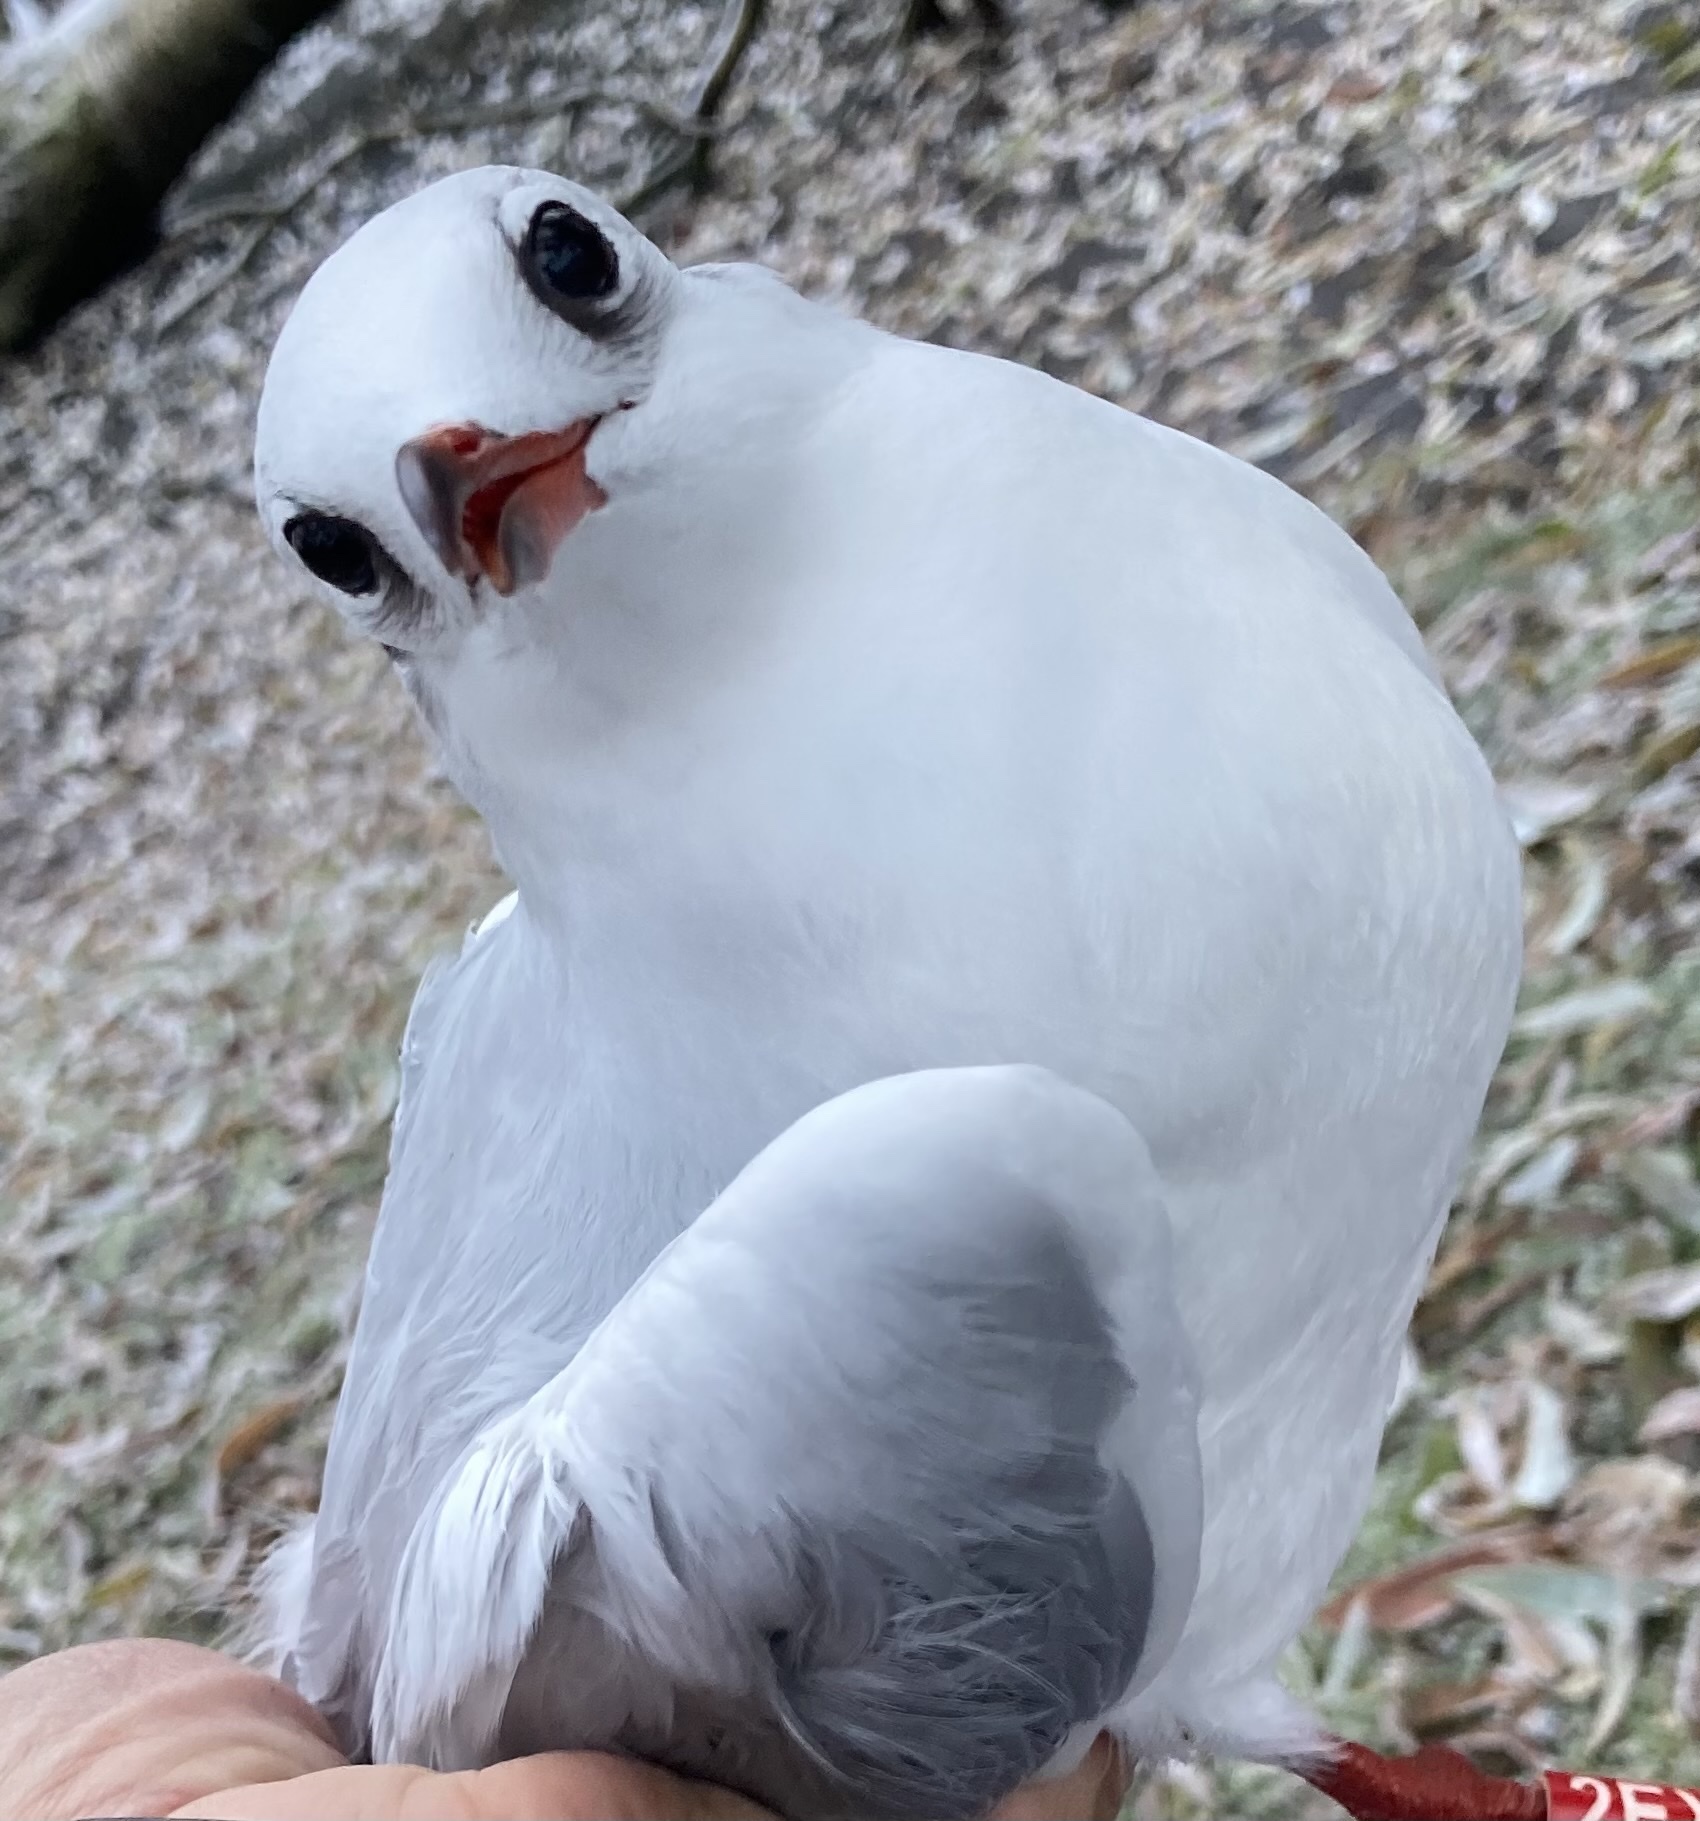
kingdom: Animalia
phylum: Chordata
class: Aves
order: Charadriiformes
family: Laridae
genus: Chroicocephalus
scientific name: Chroicocephalus ridibundus
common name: Black-headed gull
